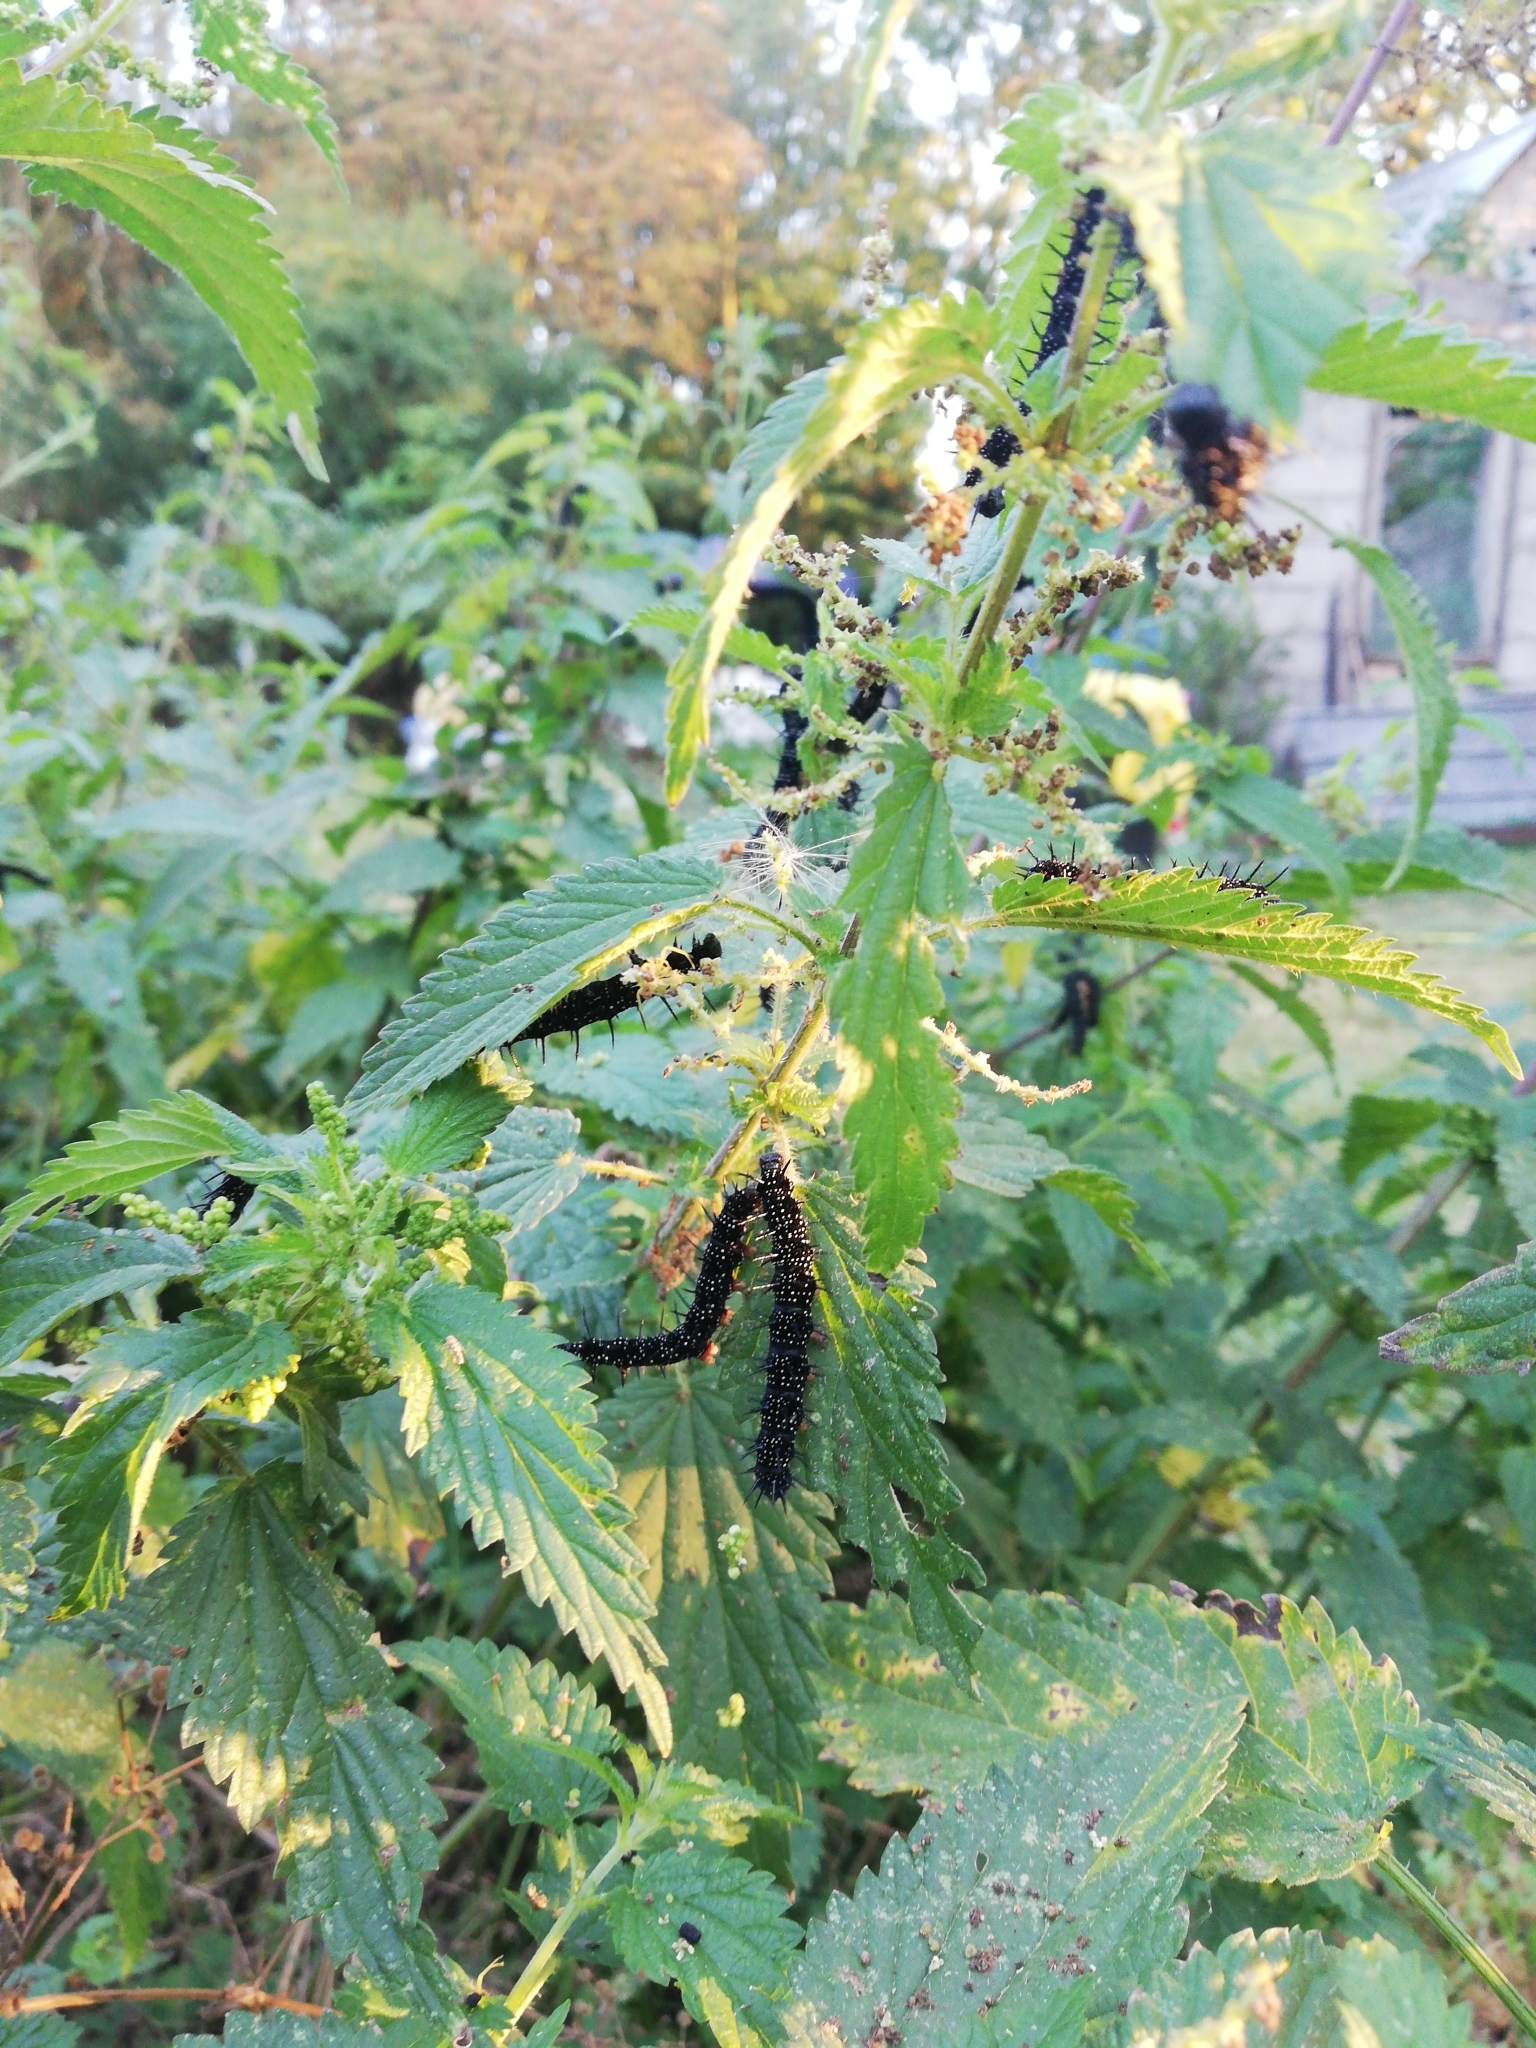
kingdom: Animalia
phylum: Arthropoda
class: Insecta
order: Lepidoptera
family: Nymphalidae
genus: Aglais
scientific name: Aglais io
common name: Peacock
